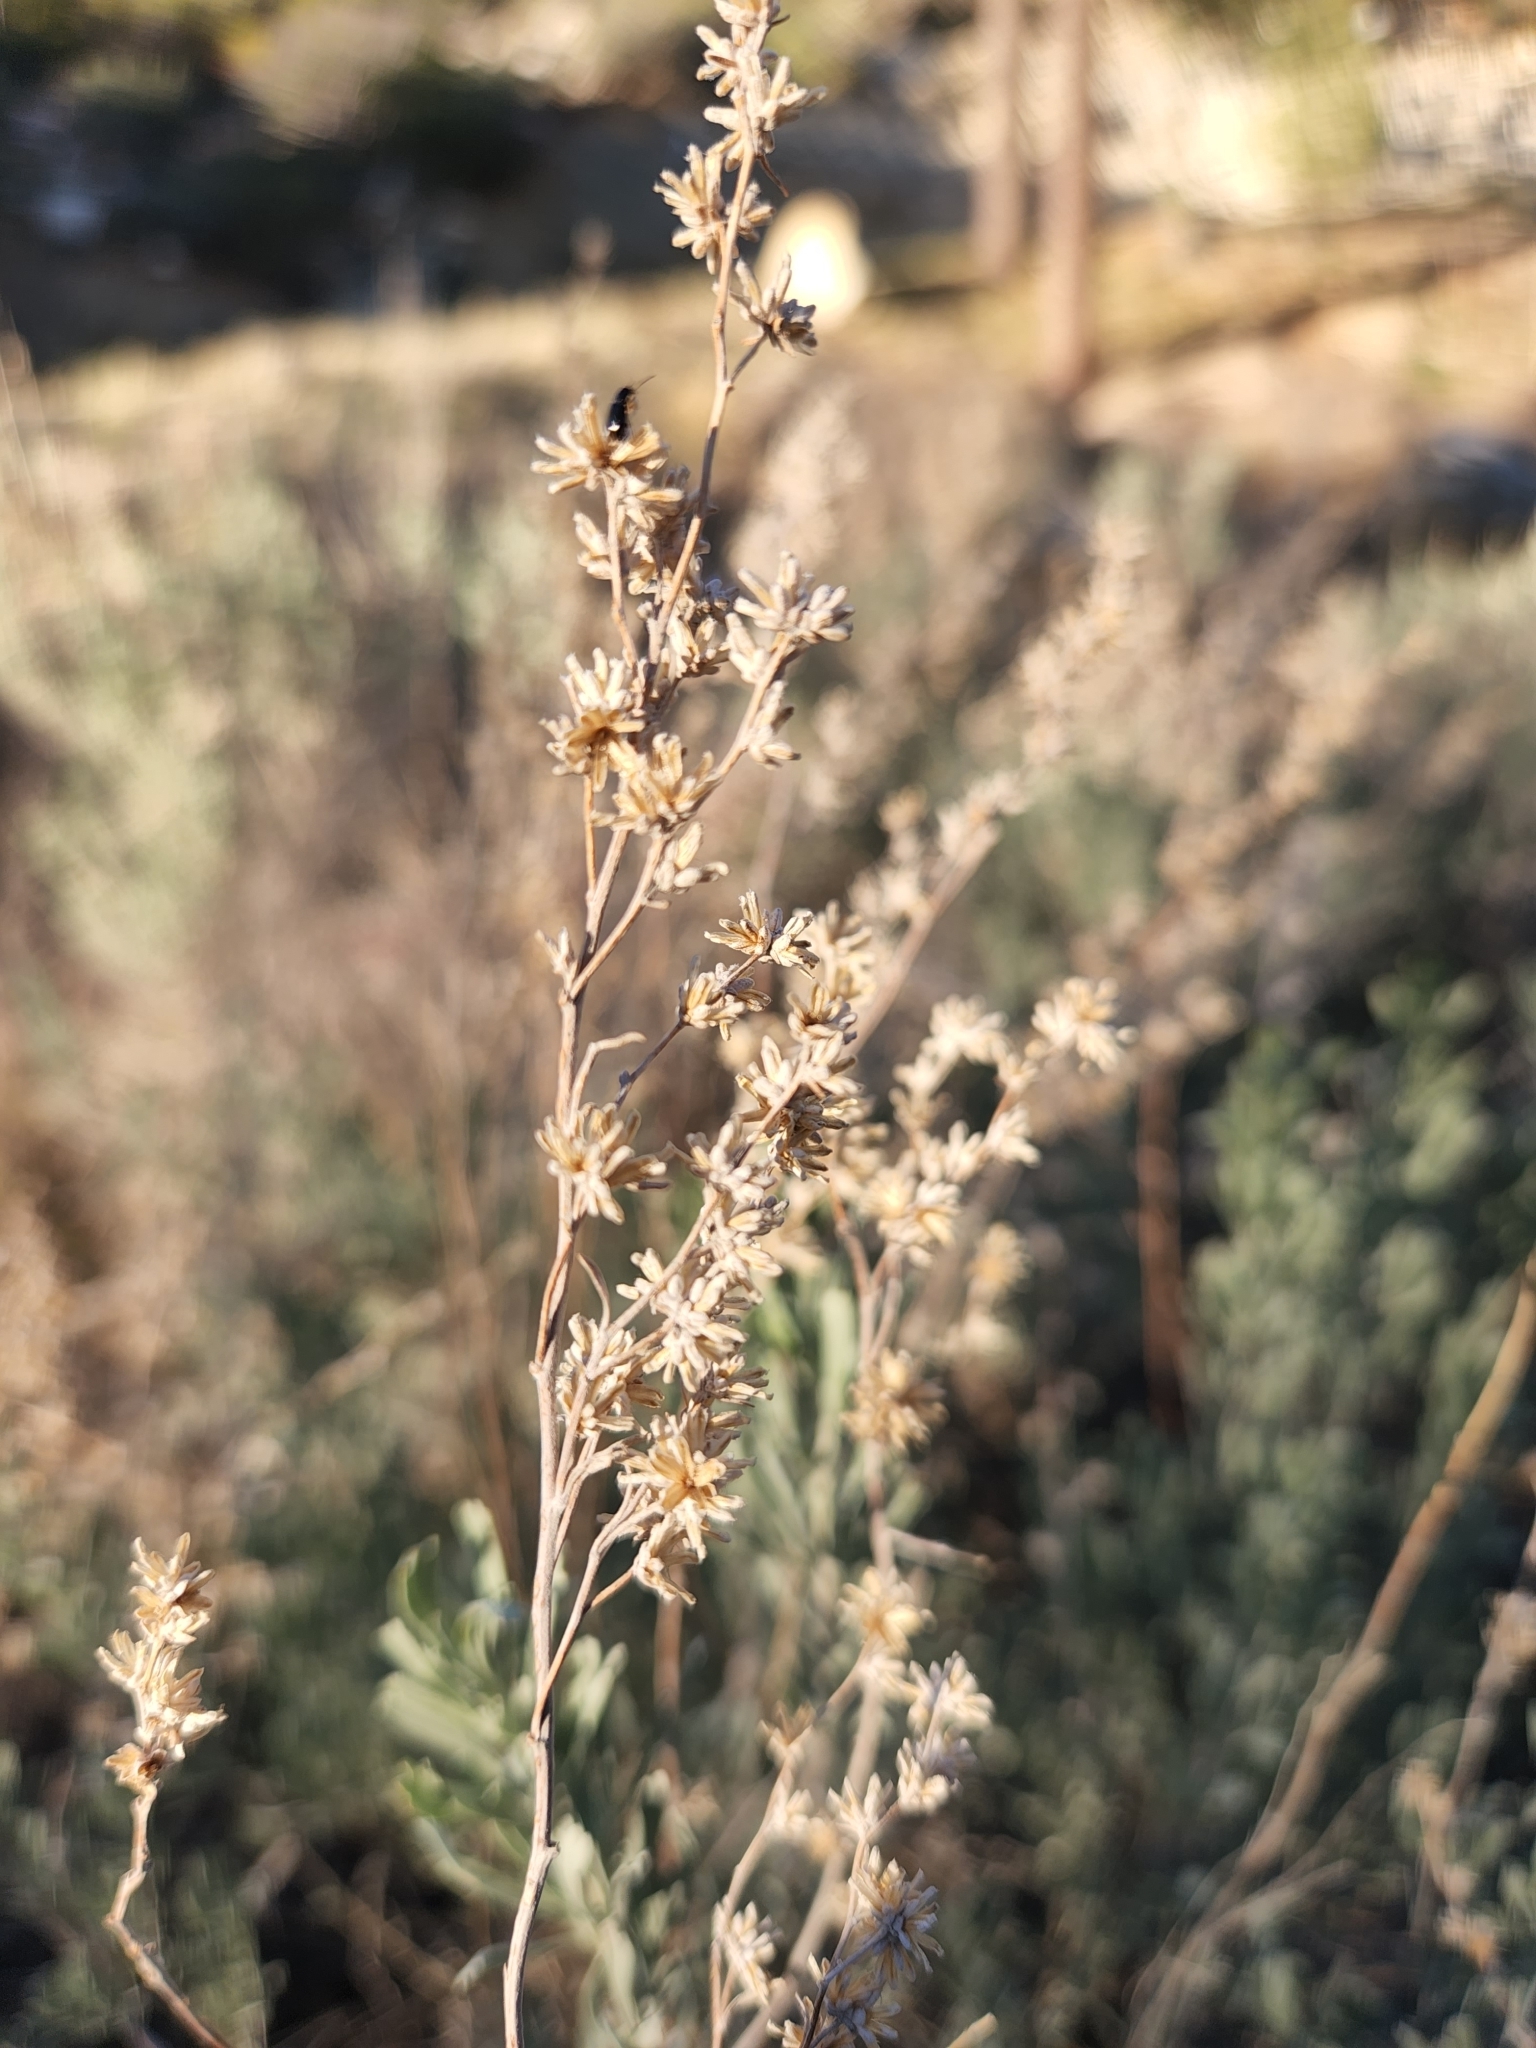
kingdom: Plantae
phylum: Tracheophyta
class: Magnoliopsida
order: Asterales
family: Asteraceae
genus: Artemisia
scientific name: Artemisia tridentata
